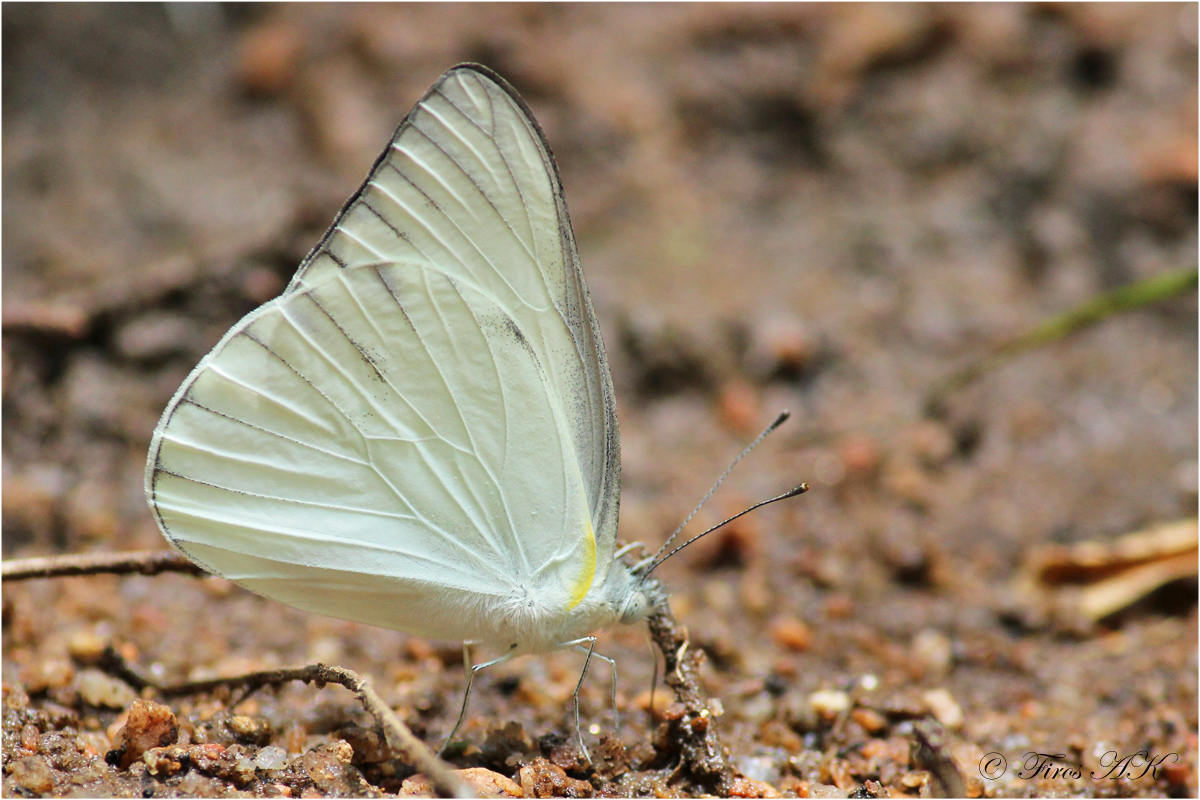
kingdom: Animalia
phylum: Arthropoda
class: Insecta
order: Lepidoptera
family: Pieridae
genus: Appias
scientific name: Appias libythea
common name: Striped albatross
